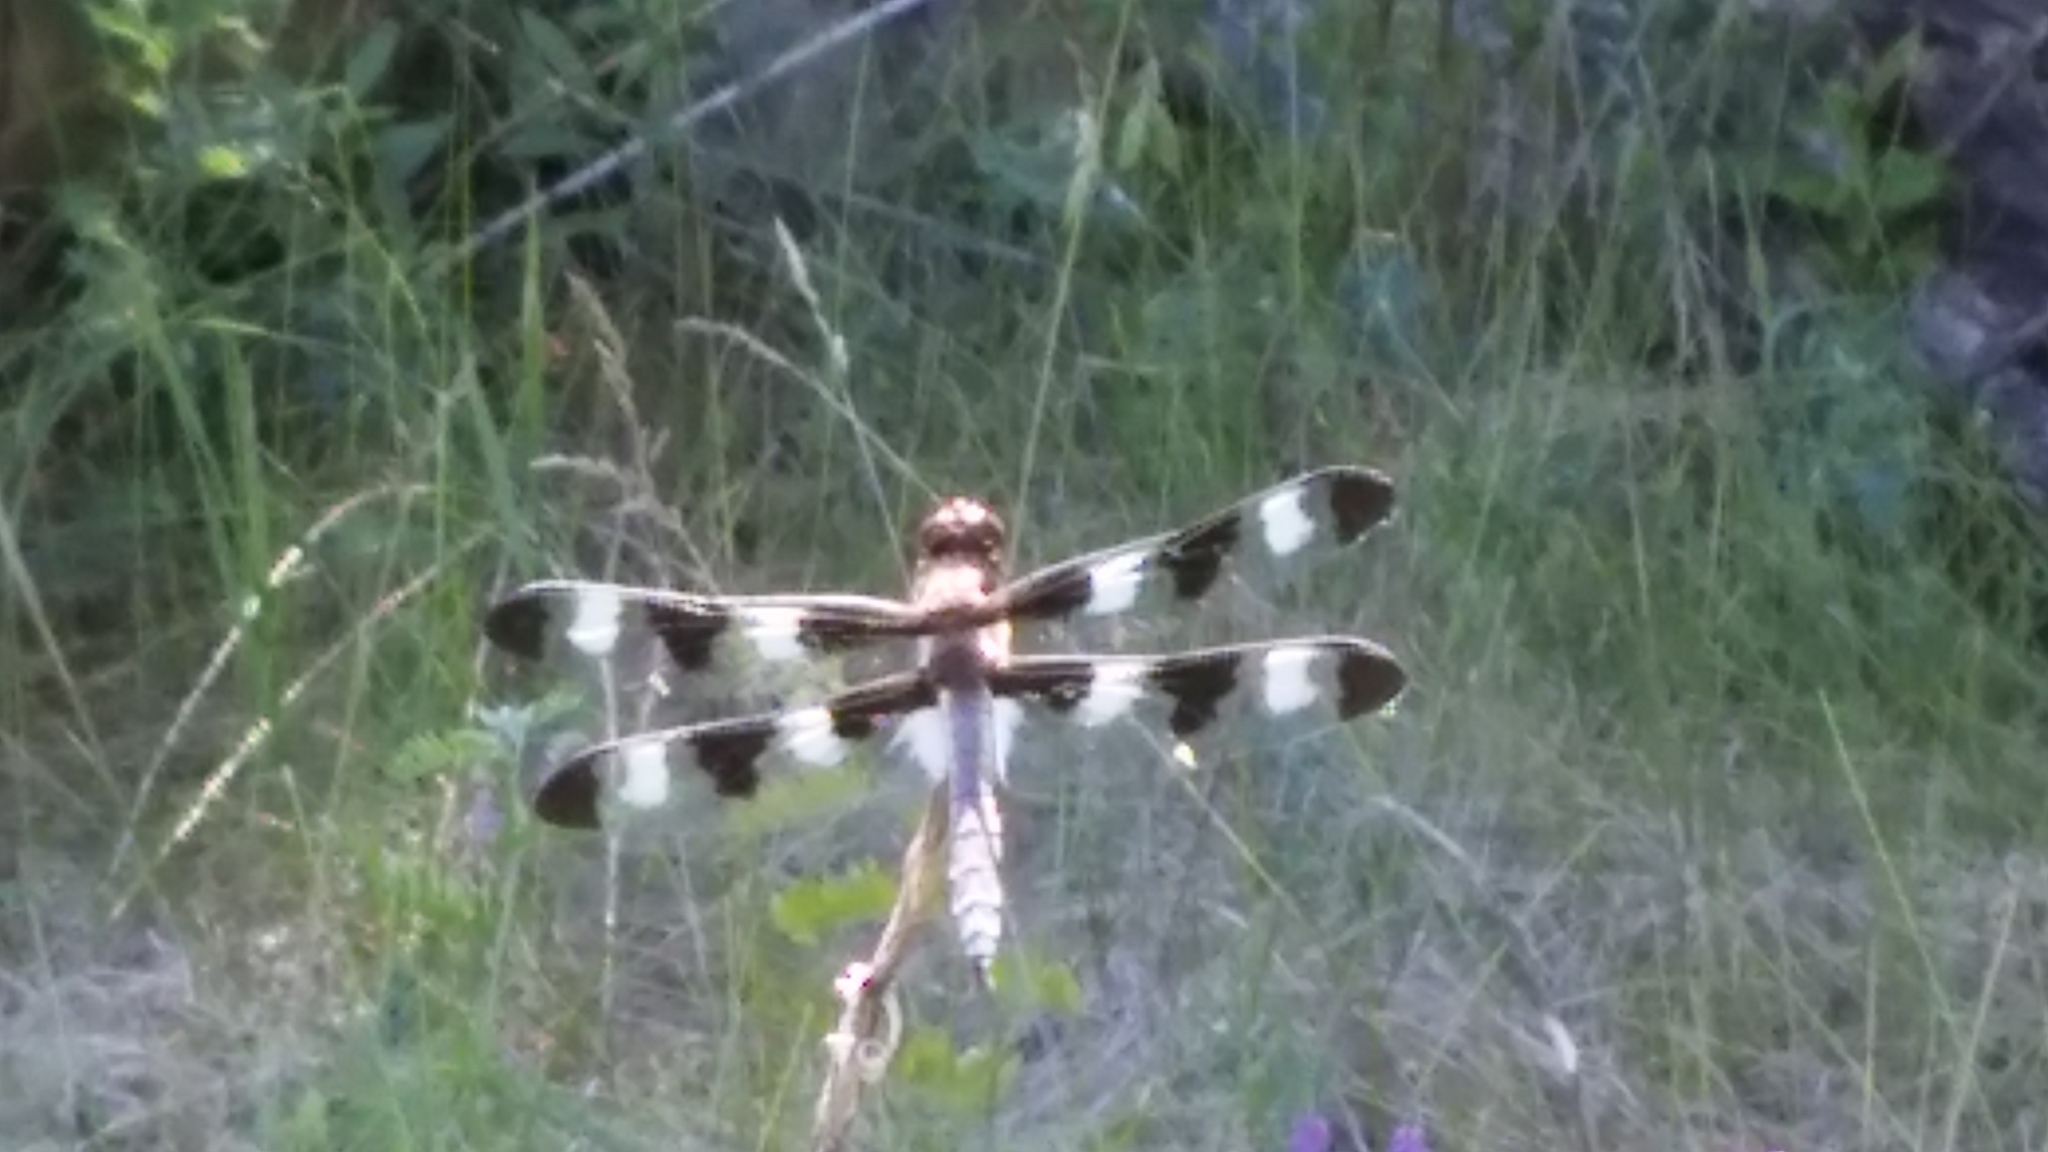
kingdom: Animalia
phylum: Arthropoda
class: Insecta
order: Odonata
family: Libellulidae
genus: Libellula
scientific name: Libellula pulchella
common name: Twelve-spotted skimmer
